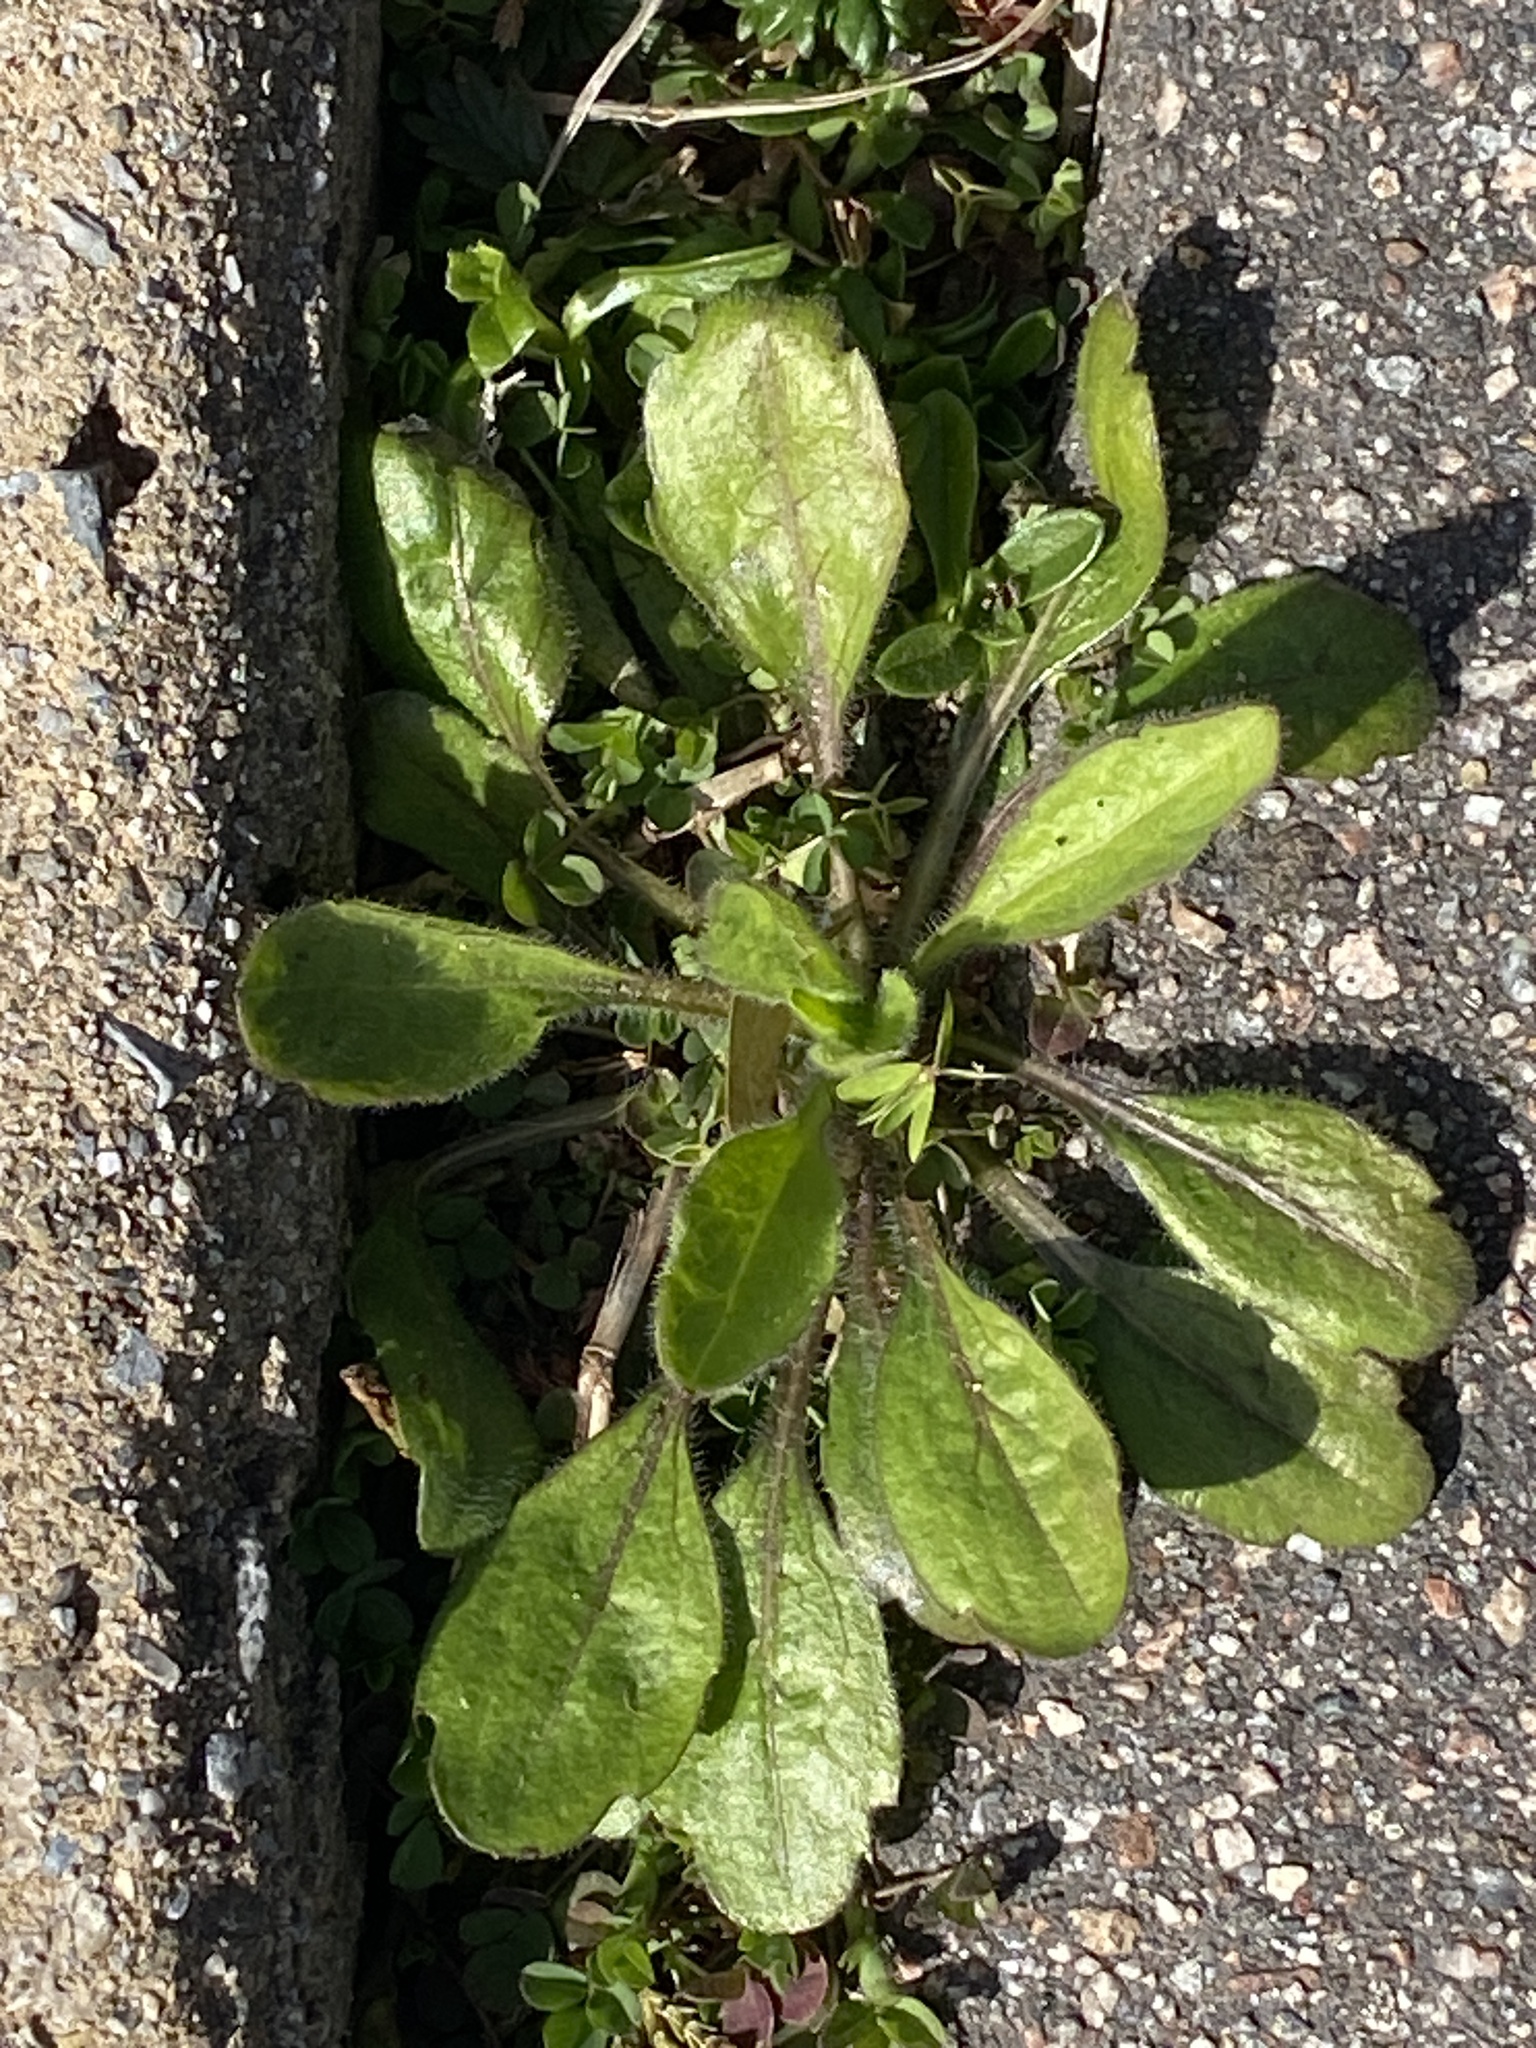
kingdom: Plantae
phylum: Tracheophyta
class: Magnoliopsida
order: Asterales
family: Asteraceae
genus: Erigeron
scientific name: Erigeron canadensis
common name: Canadian fleabane
